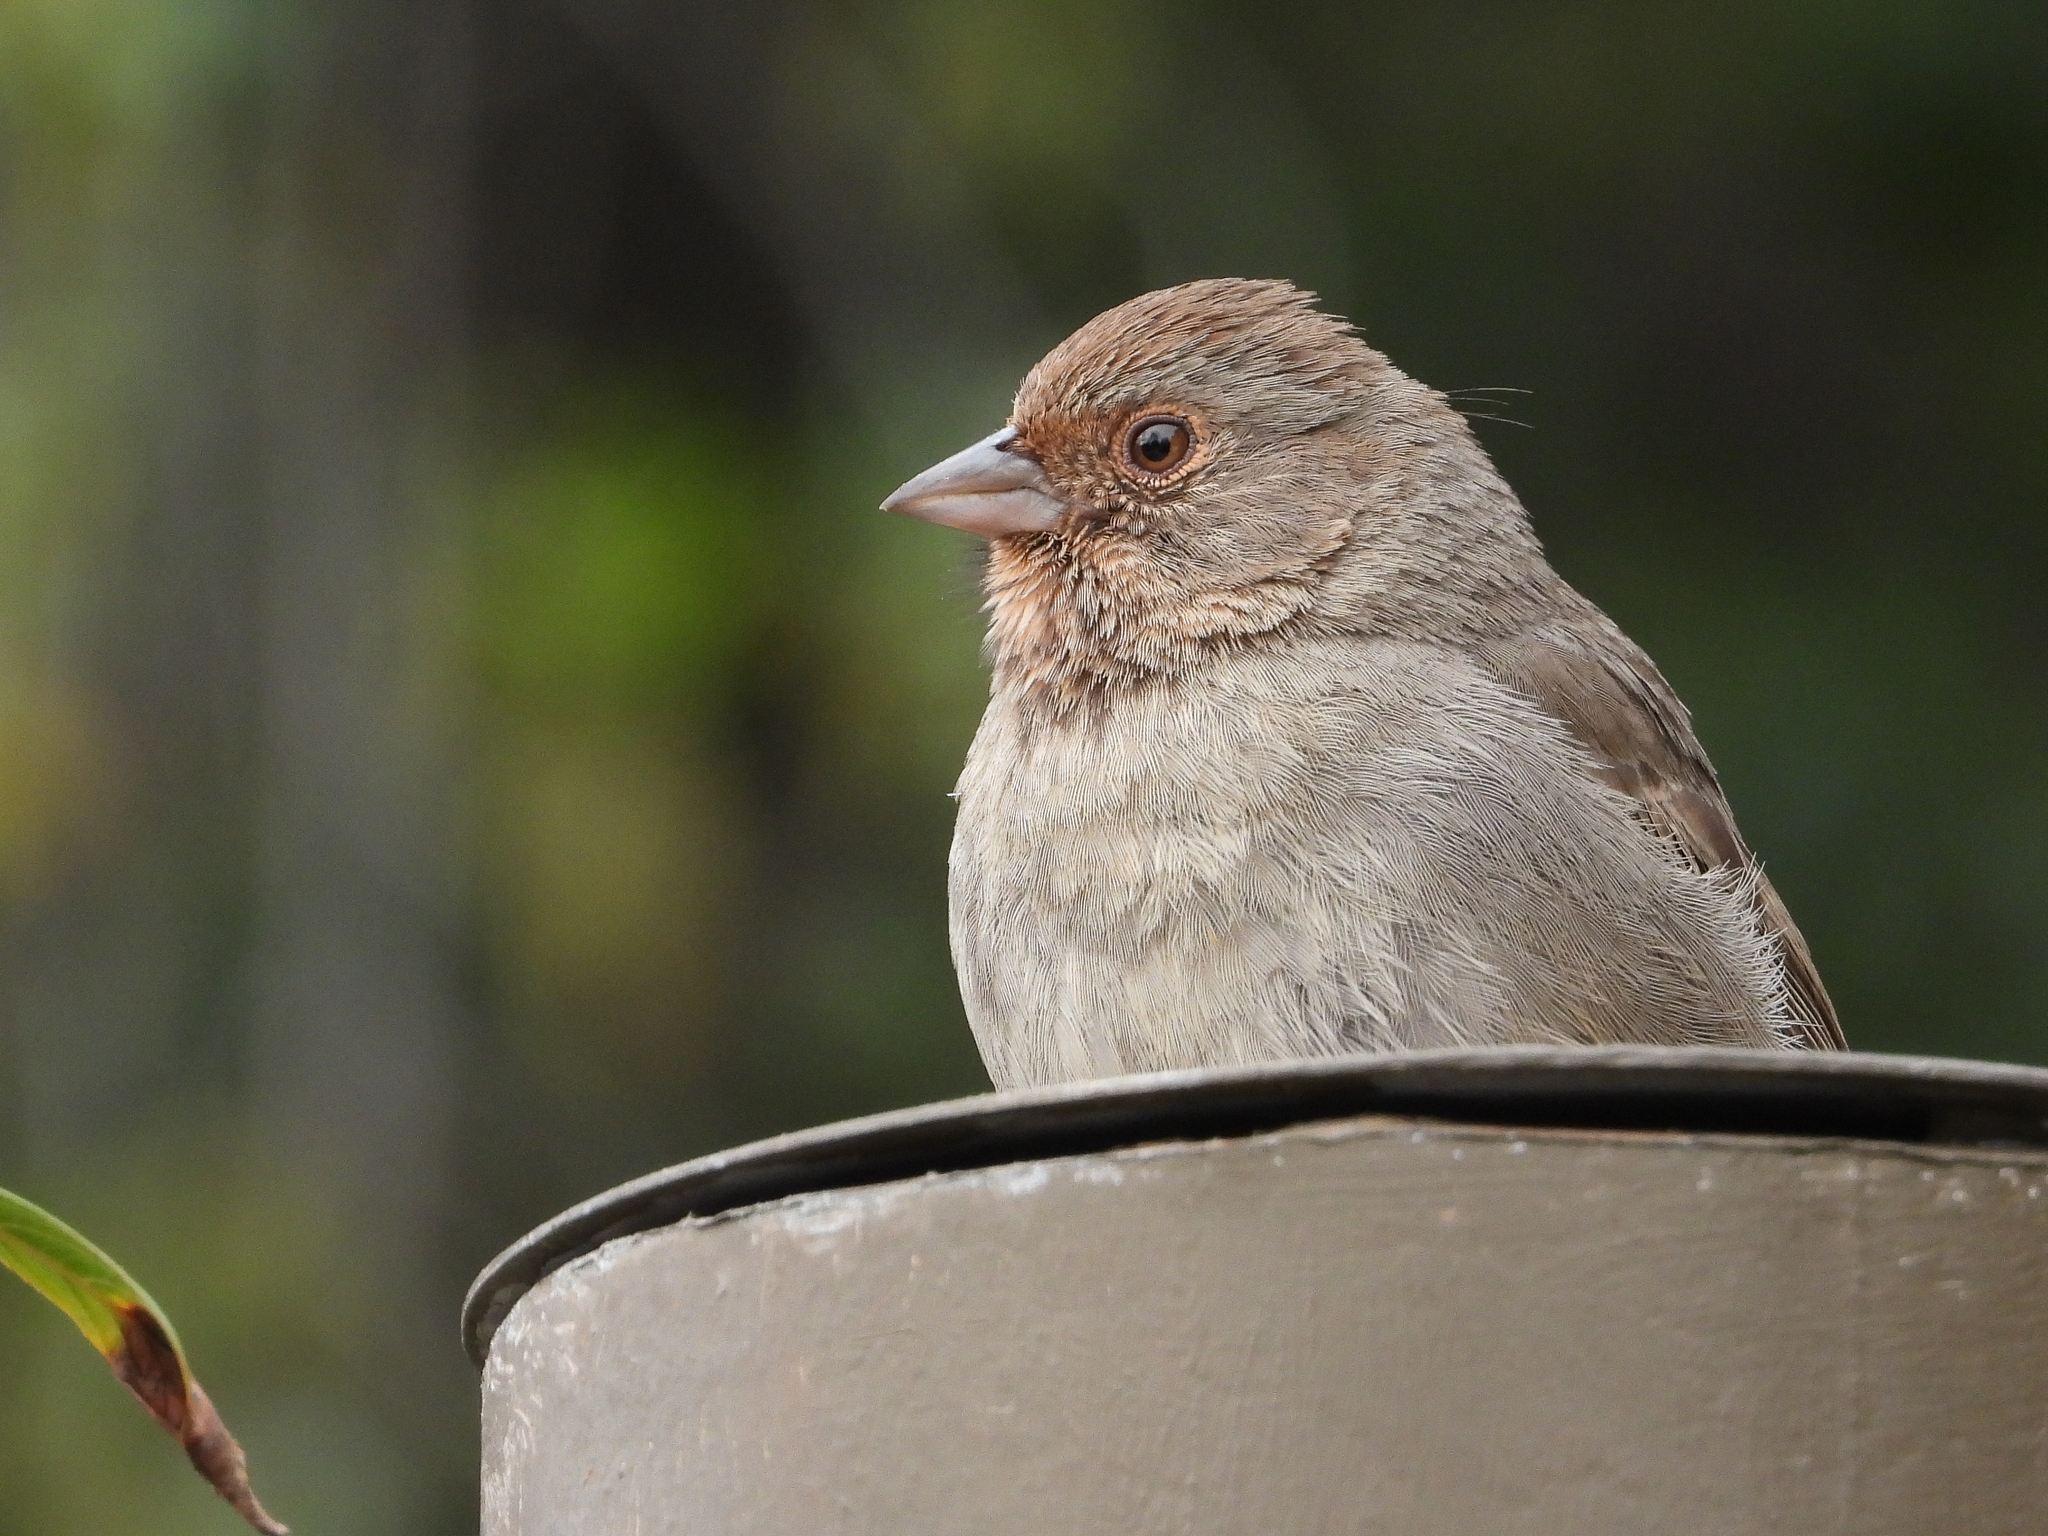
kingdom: Animalia
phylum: Chordata
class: Aves
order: Passeriformes
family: Passerellidae
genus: Melozone
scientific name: Melozone crissalis
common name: California towhee
